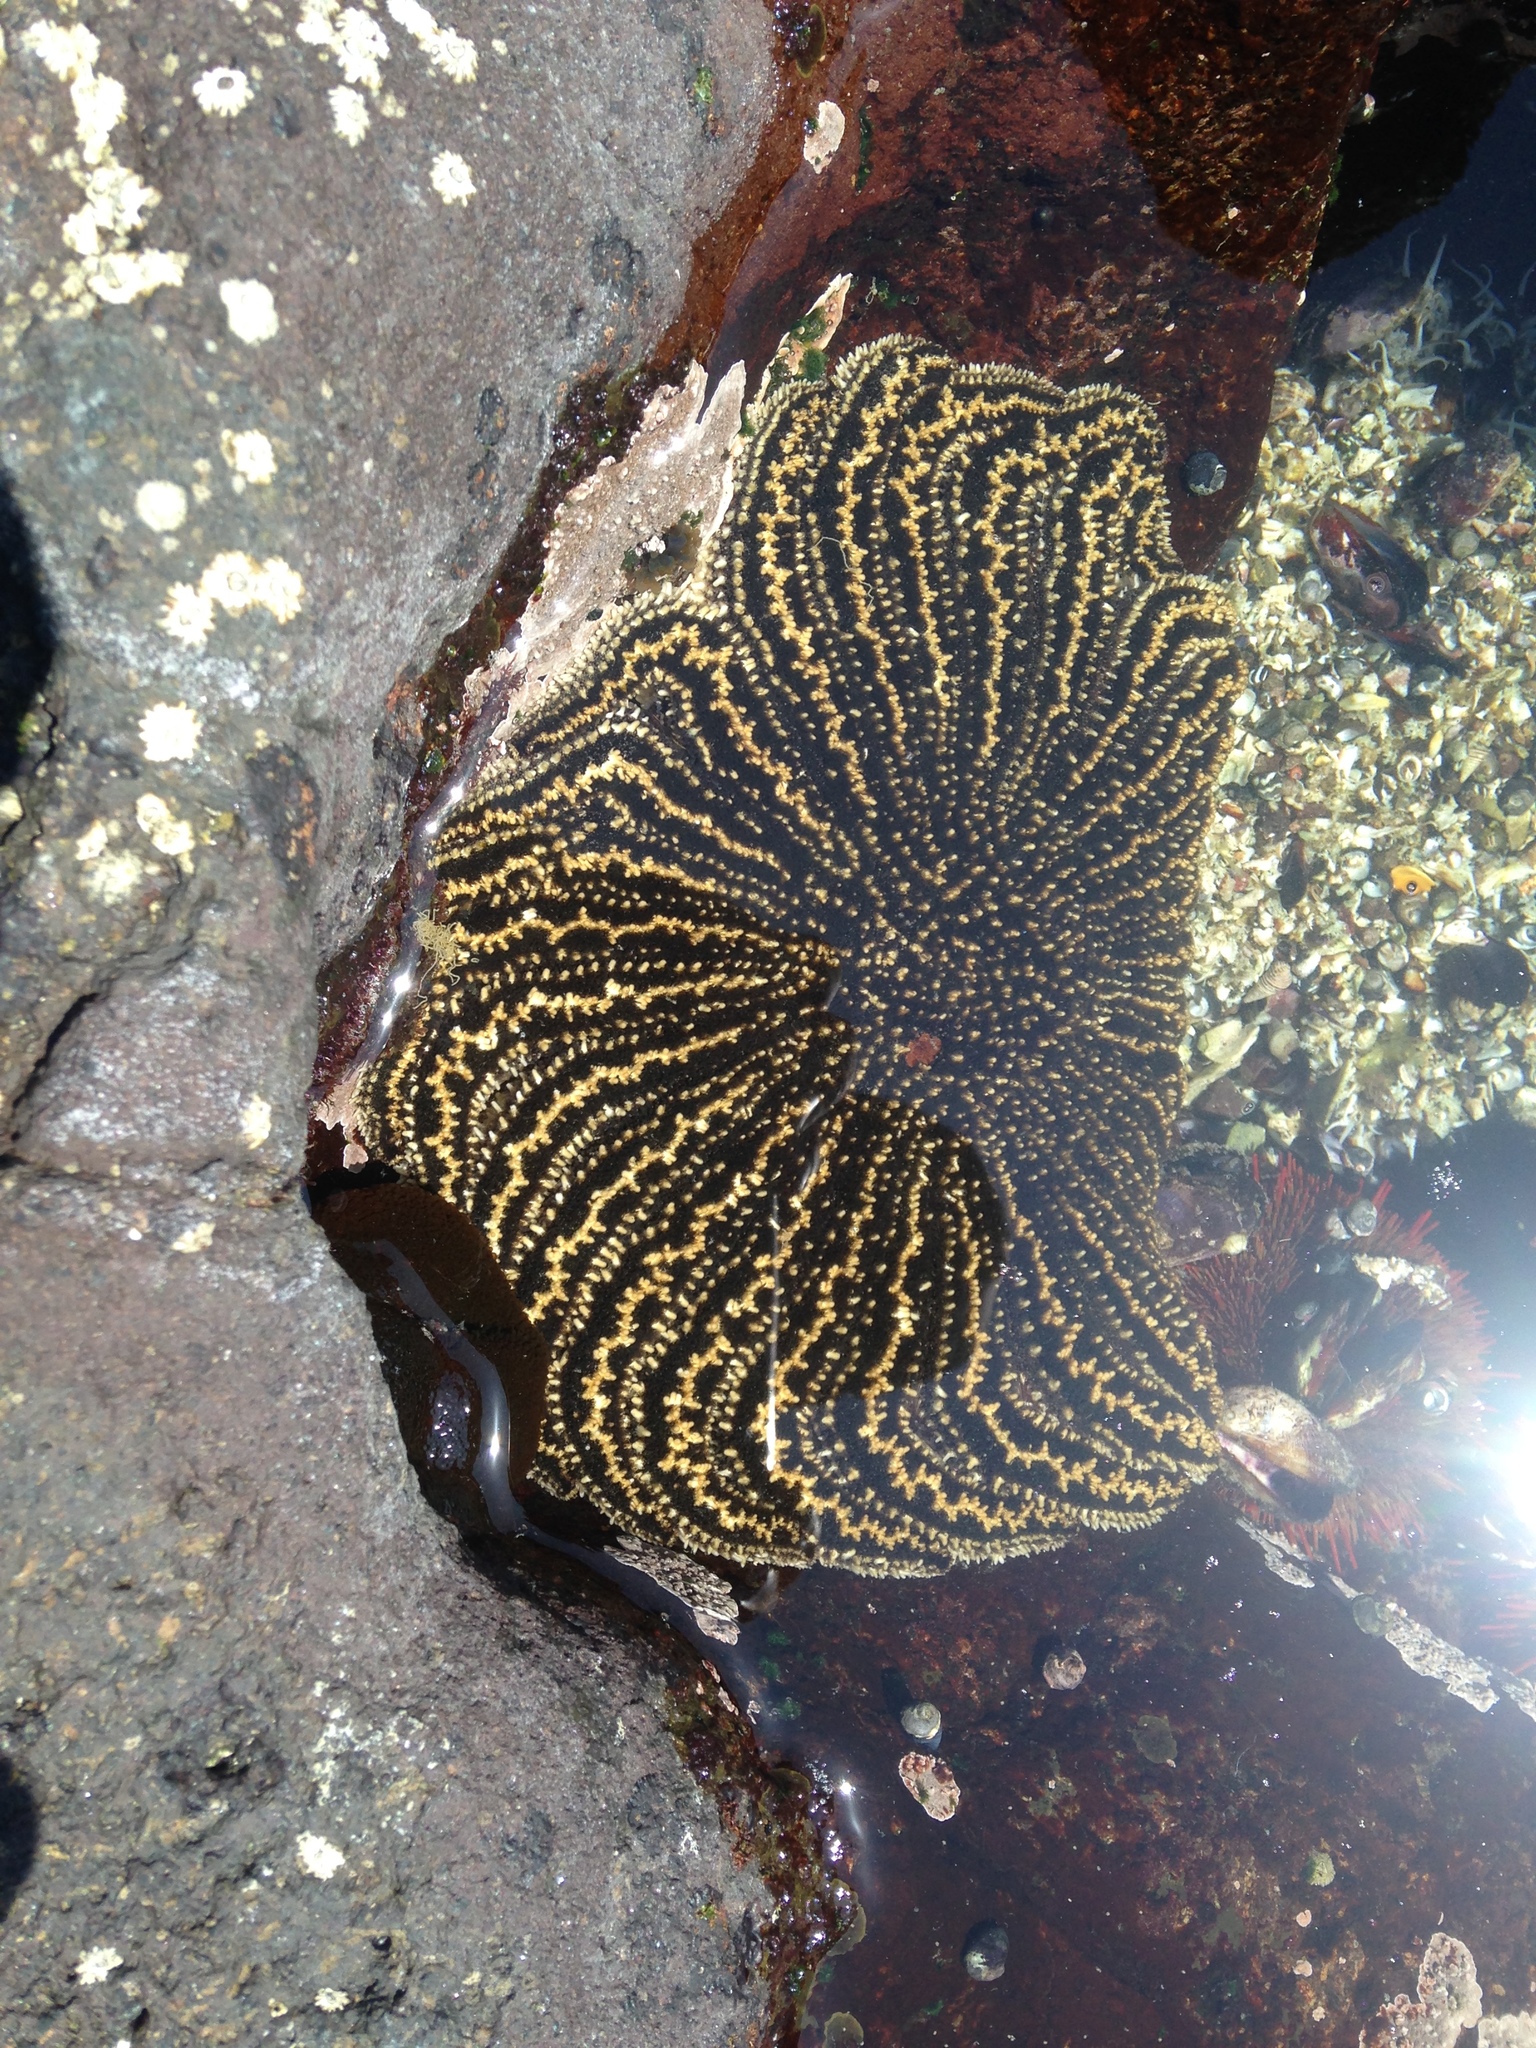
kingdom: Animalia
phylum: Echinodermata
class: Asteroidea
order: Forcipulatida
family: Heliasteridae
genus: Heliaster
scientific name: Heliaster helianthus
